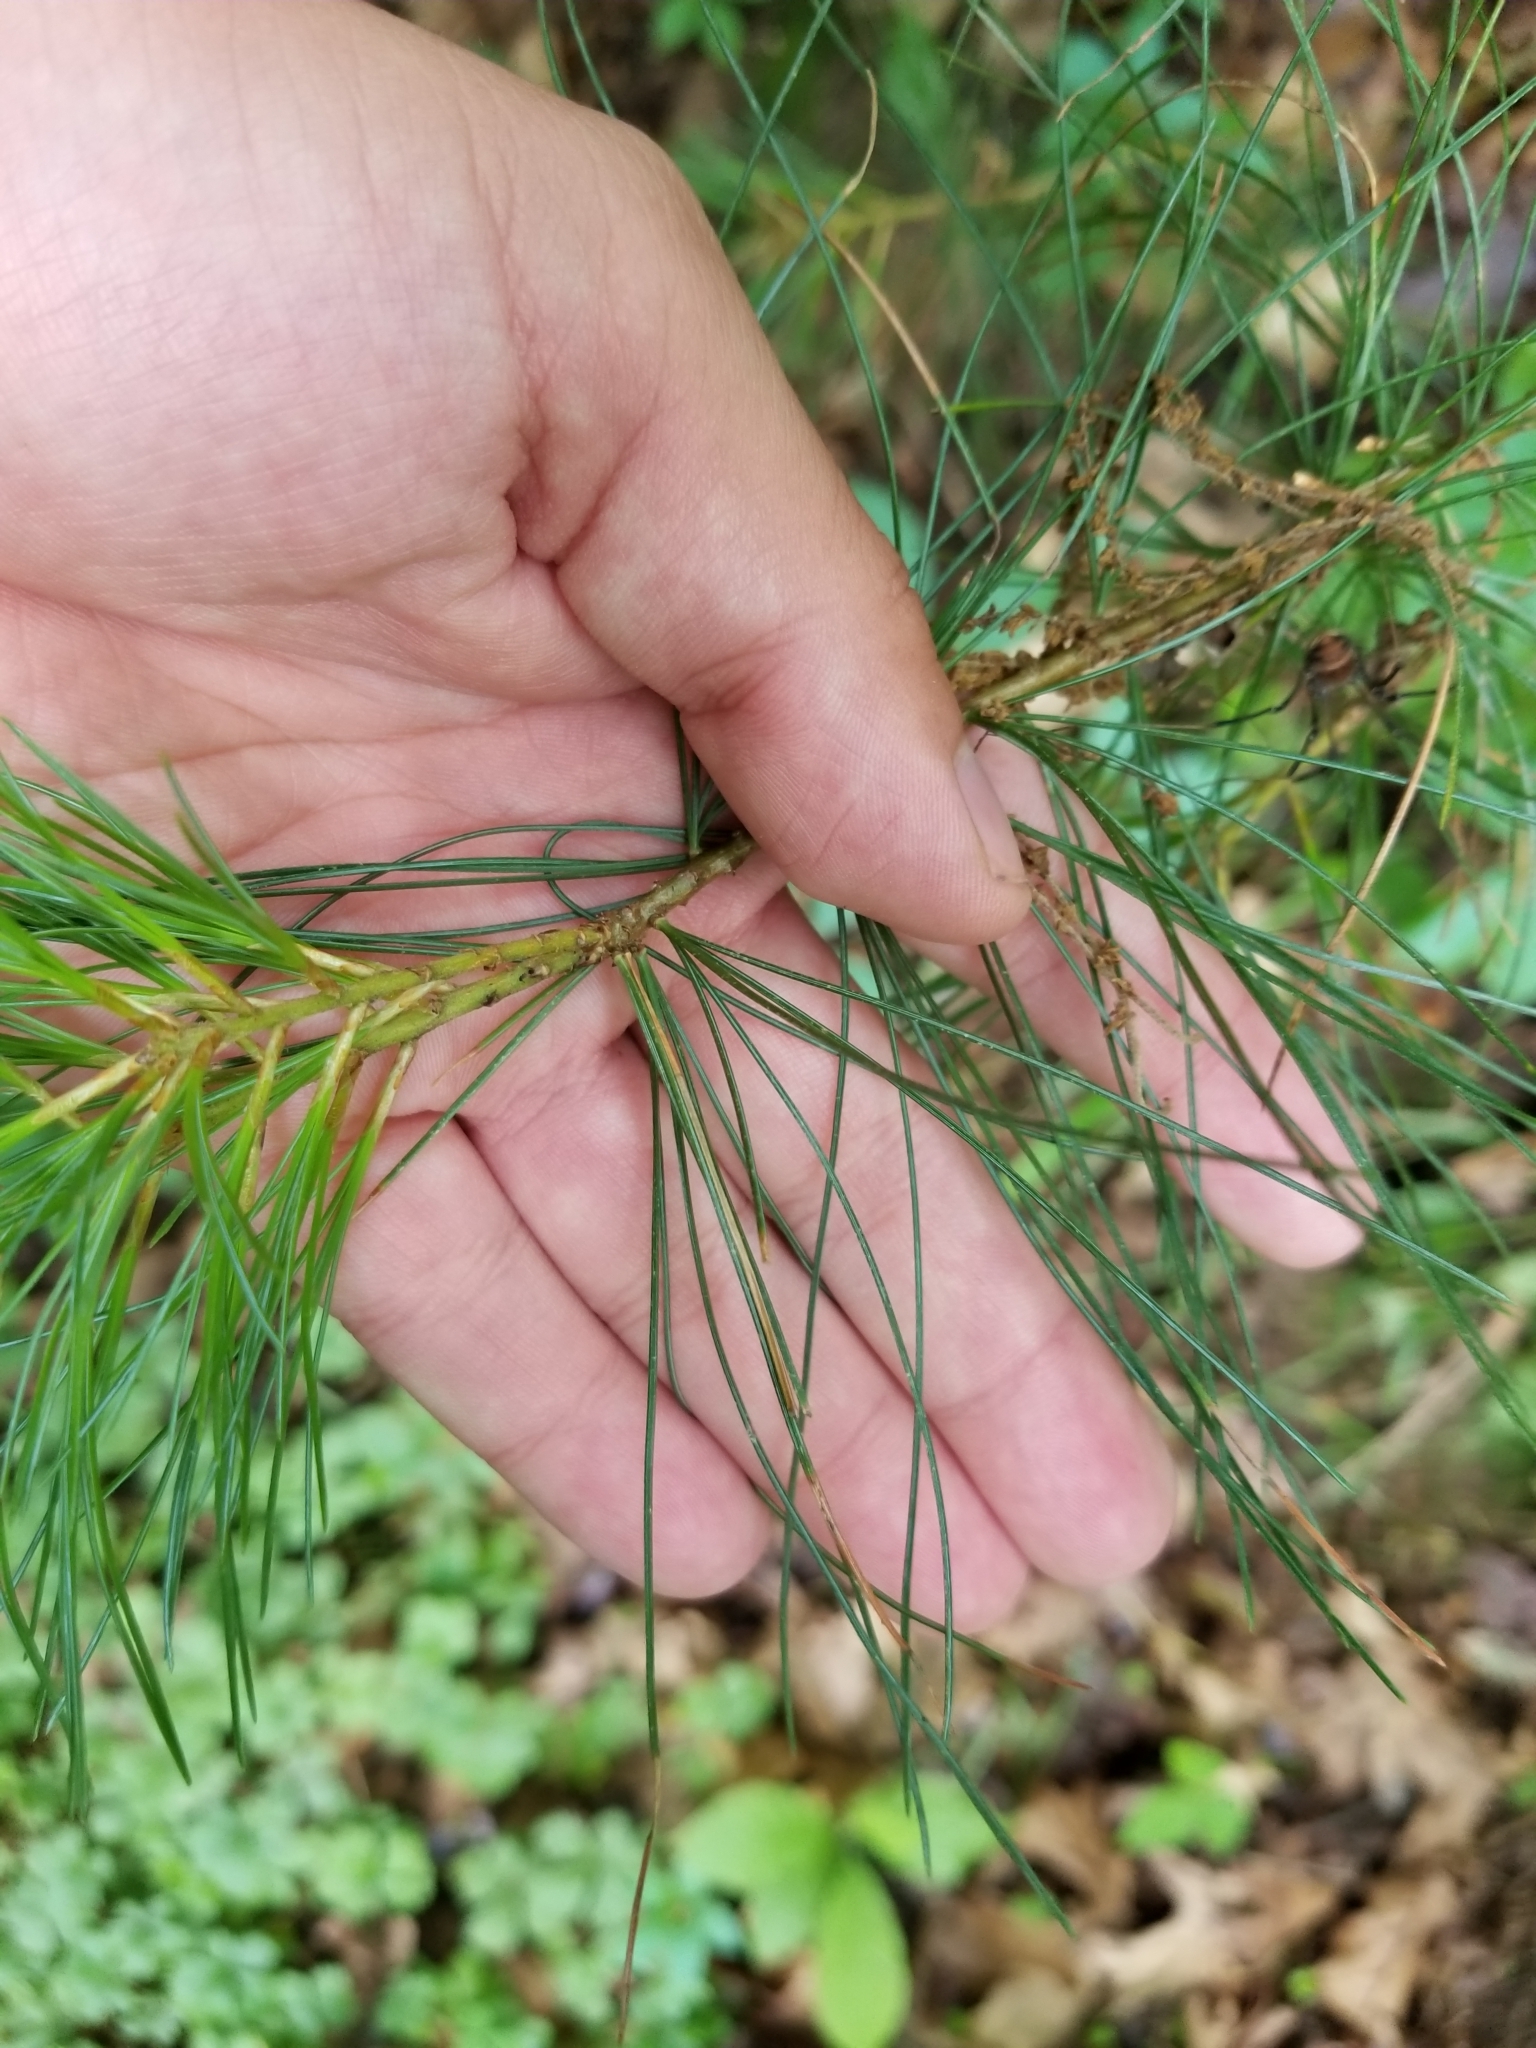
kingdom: Plantae
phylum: Tracheophyta
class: Pinopsida
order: Pinales
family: Pinaceae
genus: Pinus
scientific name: Pinus strobus
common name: Weymouth pine
